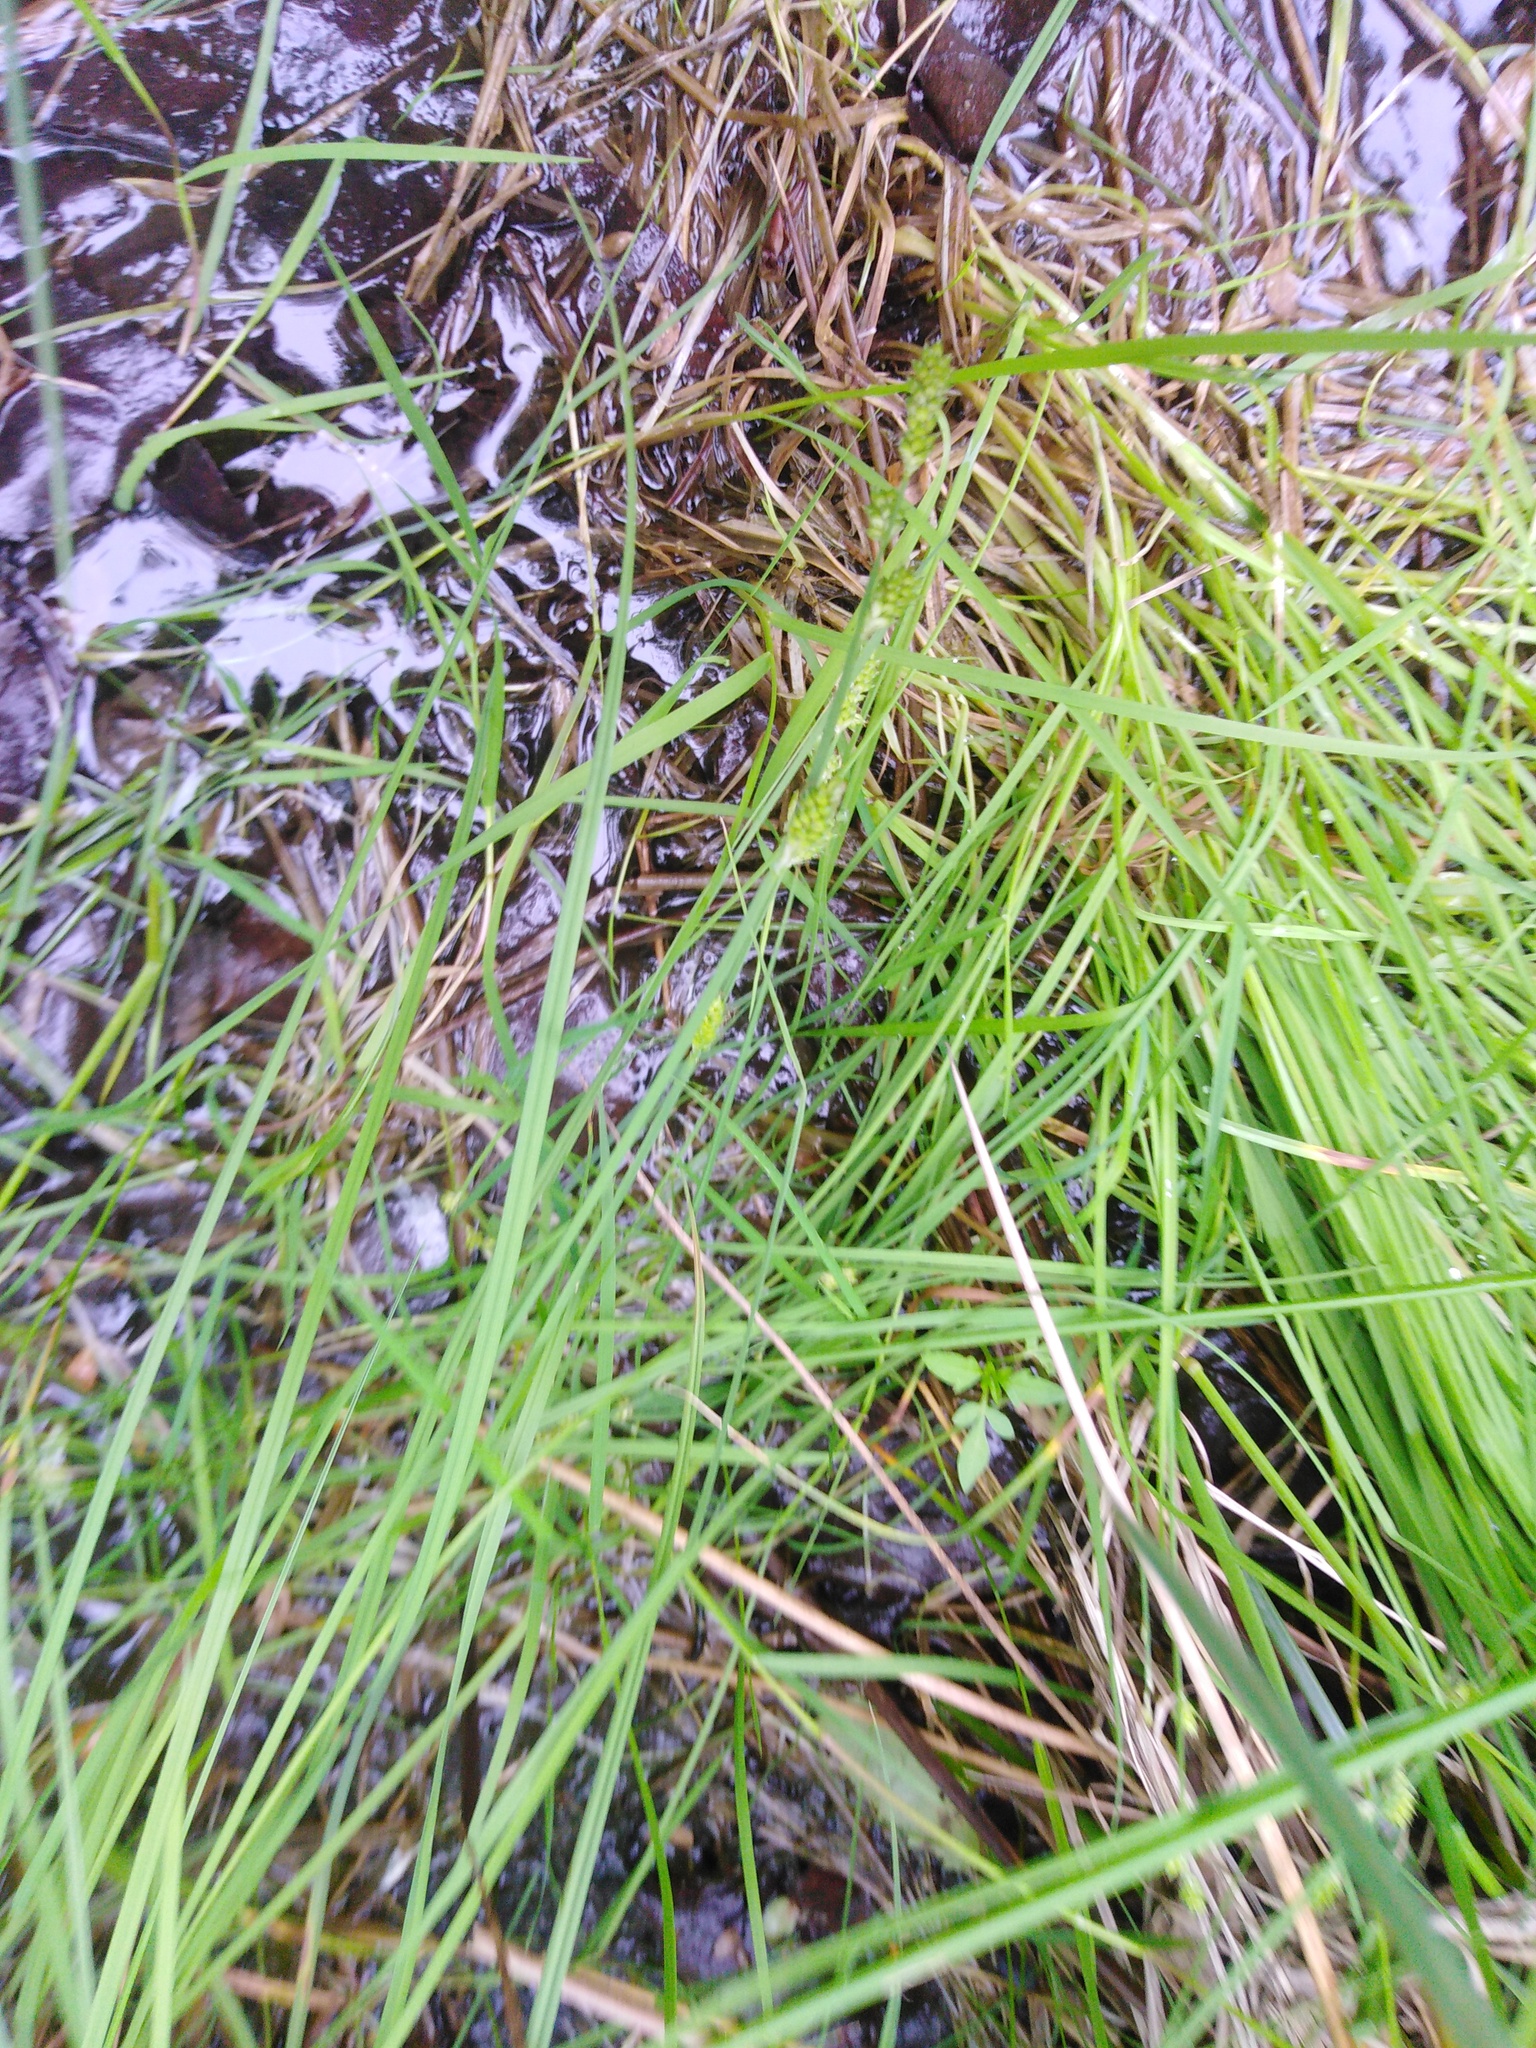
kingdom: Plantae
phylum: Tracheophyta
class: Liliopsida
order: Poales
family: Cyperaceae
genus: Carex
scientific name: Carex canescens
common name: White sedge
